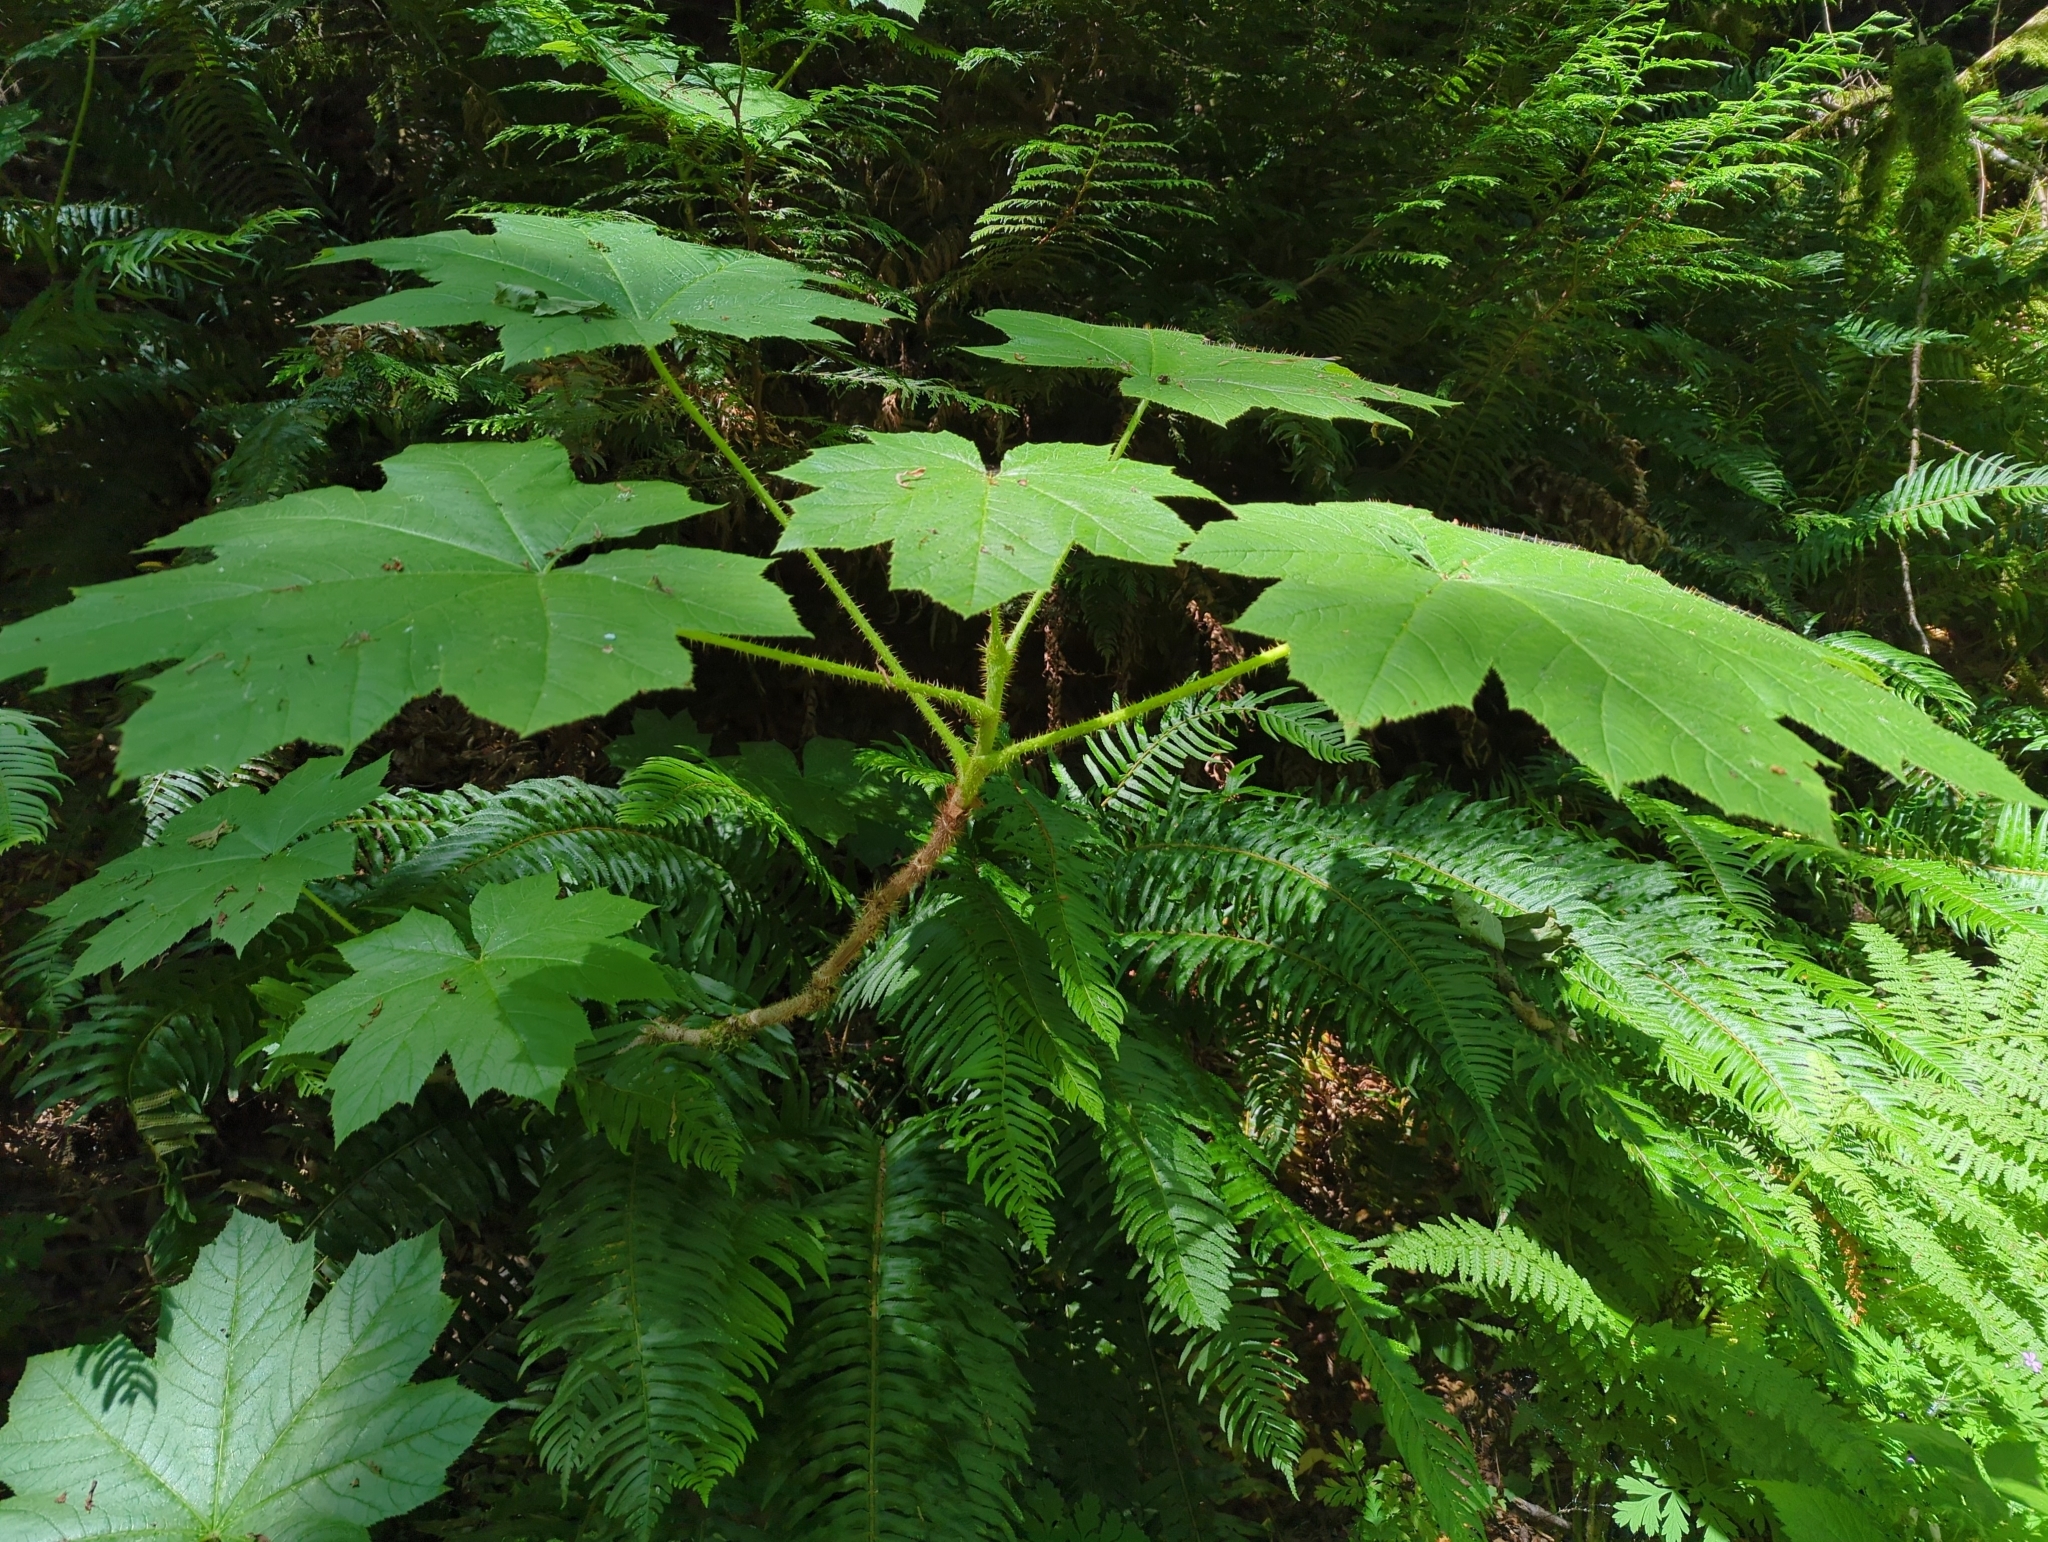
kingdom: Plantae
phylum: Tracheophyta
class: Magnoliopsida
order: Apiales
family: Araliaceae
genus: Oplopanax
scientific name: Oplopanax horridus
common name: Devil's walking-stick
